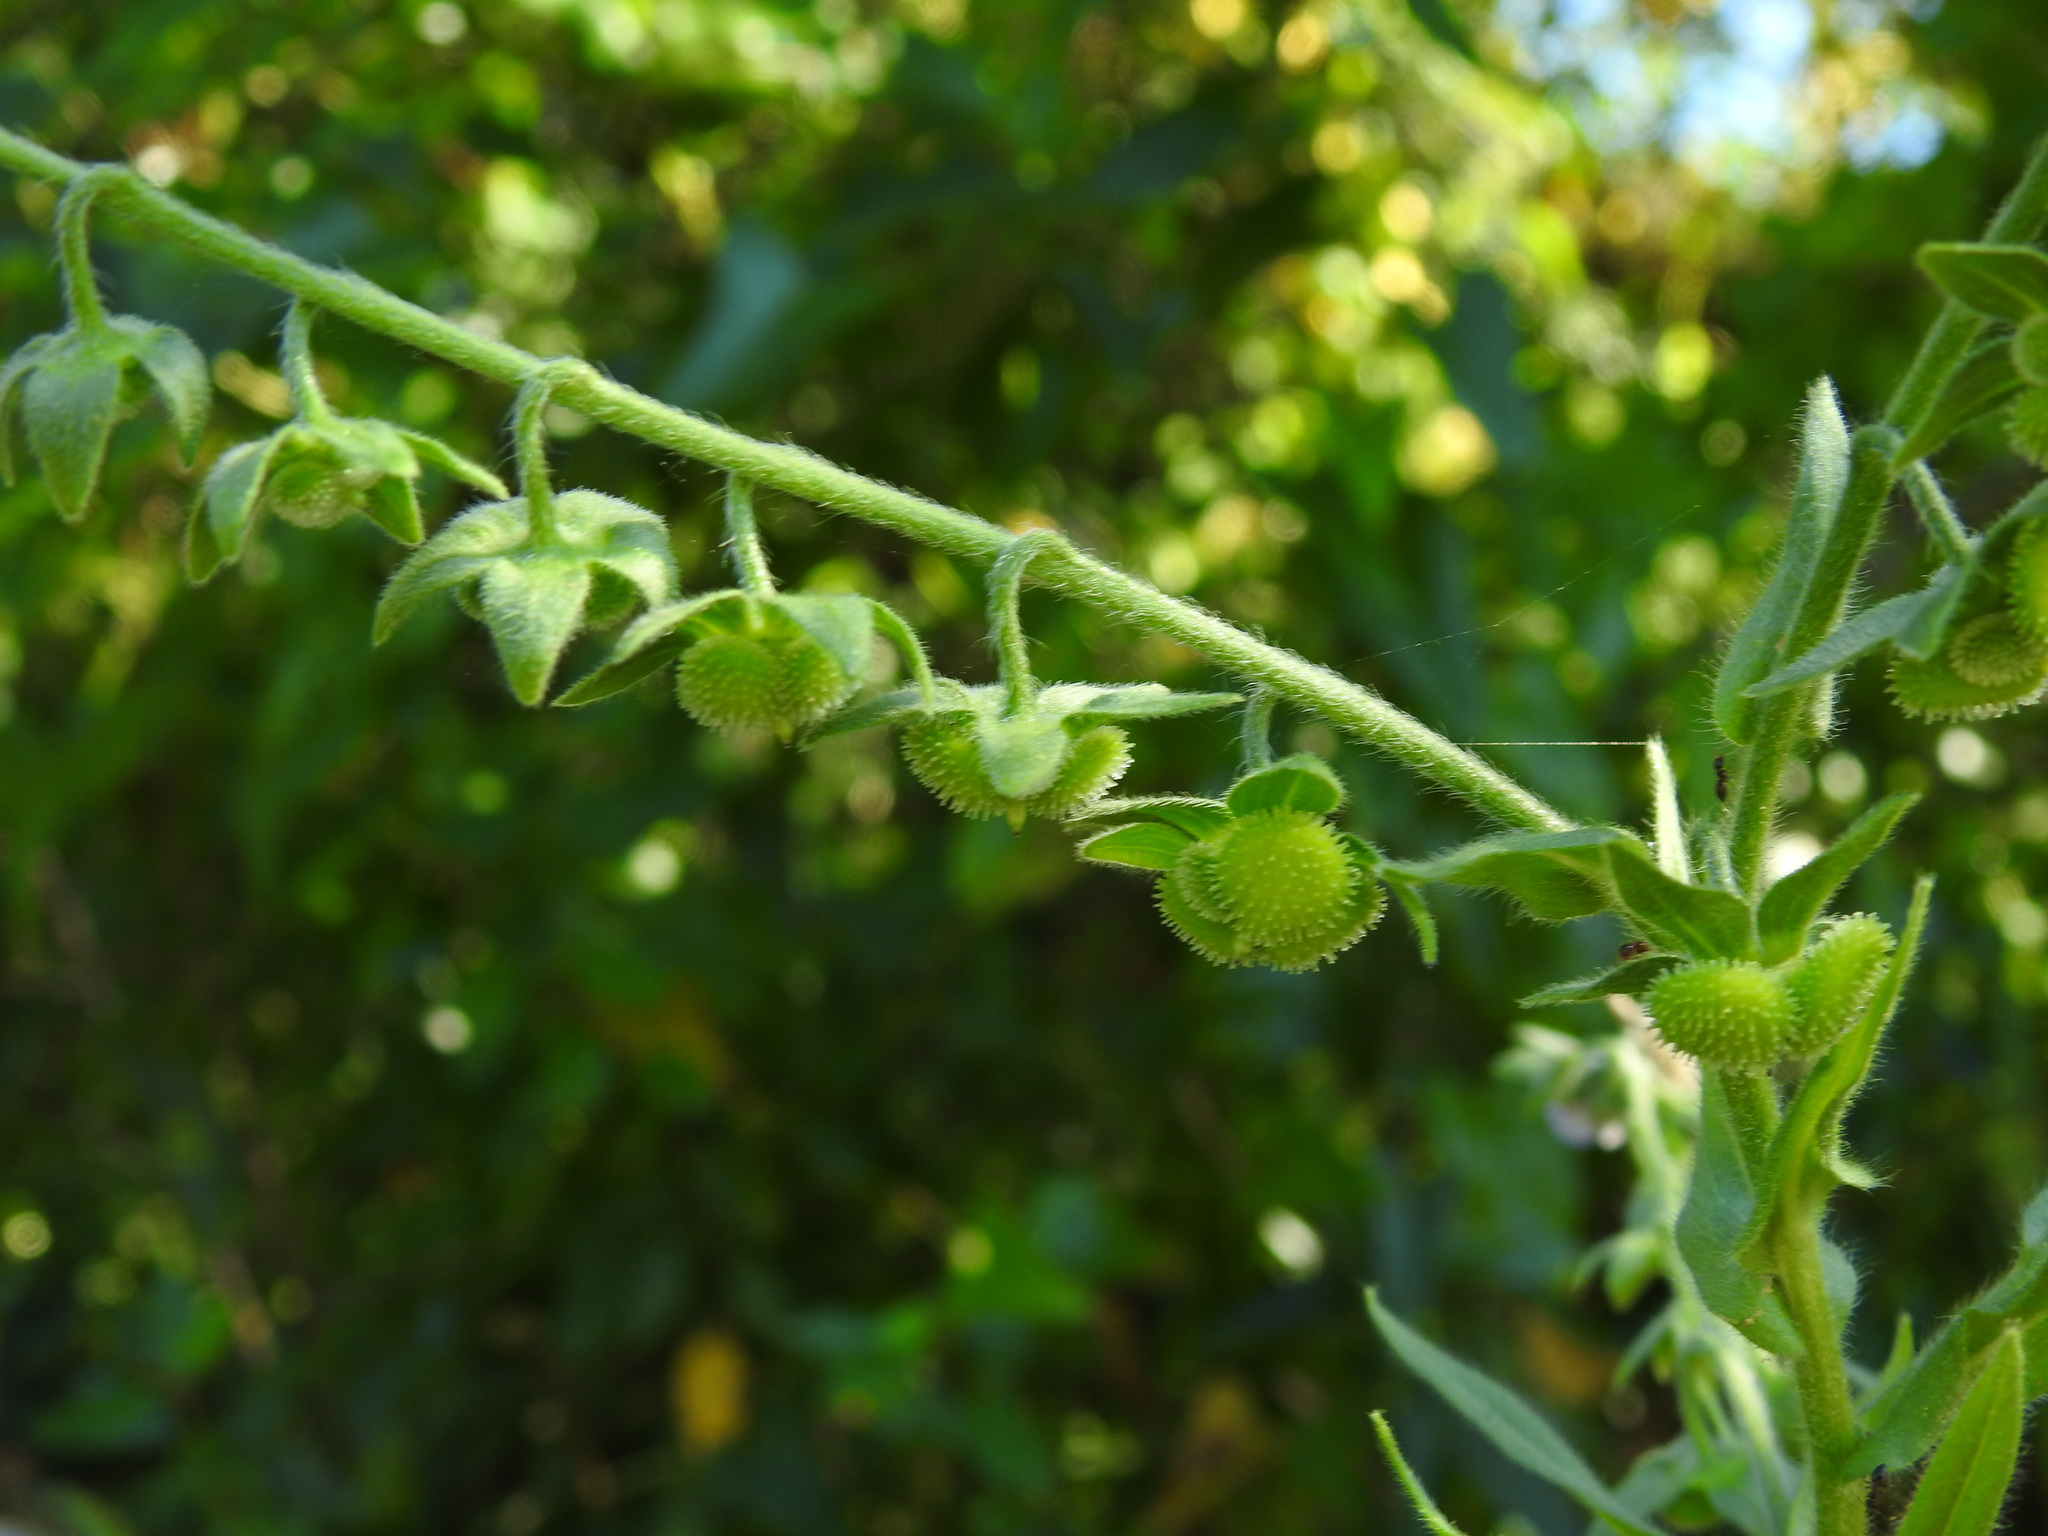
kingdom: Plantae
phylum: Tracheophyta
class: Magnoliopsida
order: Boraginales
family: Boraginaceae
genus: Cynoglossum
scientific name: Cynoglossum creticum
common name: Blue hound's tongue
